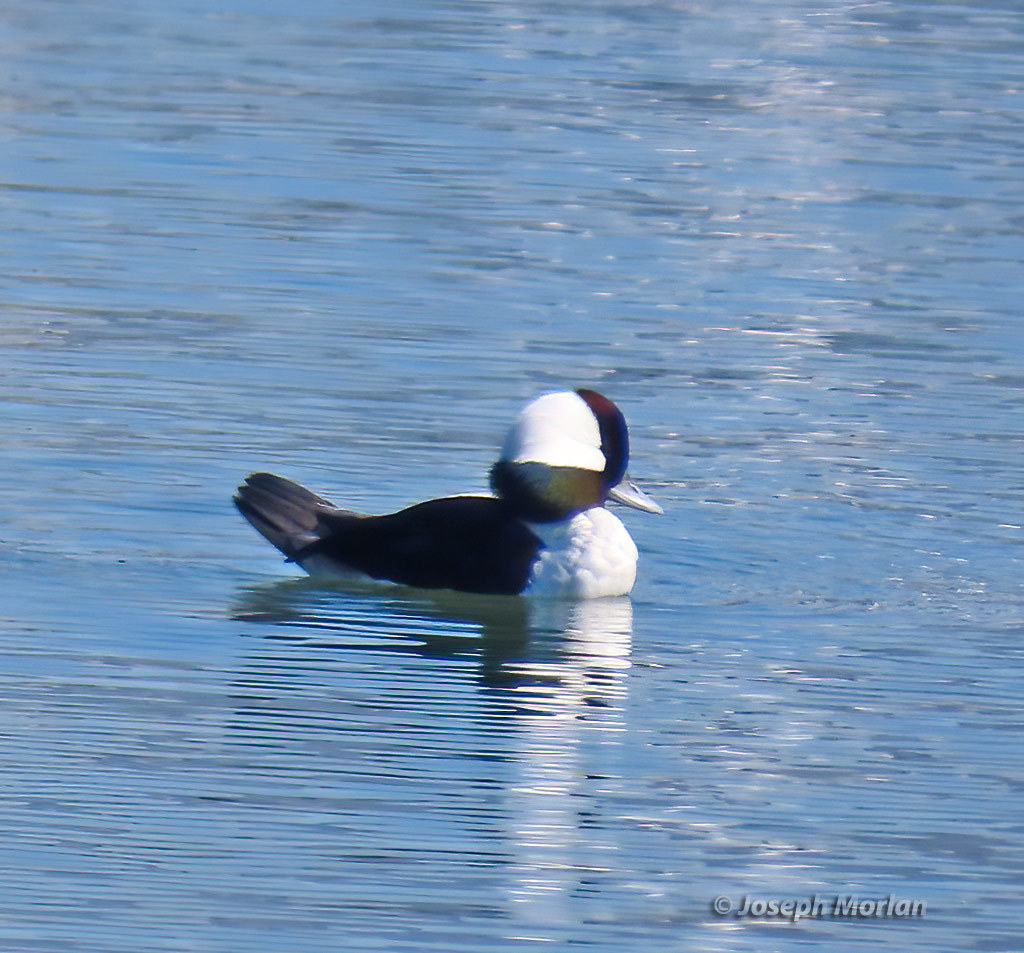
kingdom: Animalia
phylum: Chordata
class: Aves
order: Anseriformes
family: Anatidae
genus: Bucephala
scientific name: Bucephala albeola
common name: Bufflehead
